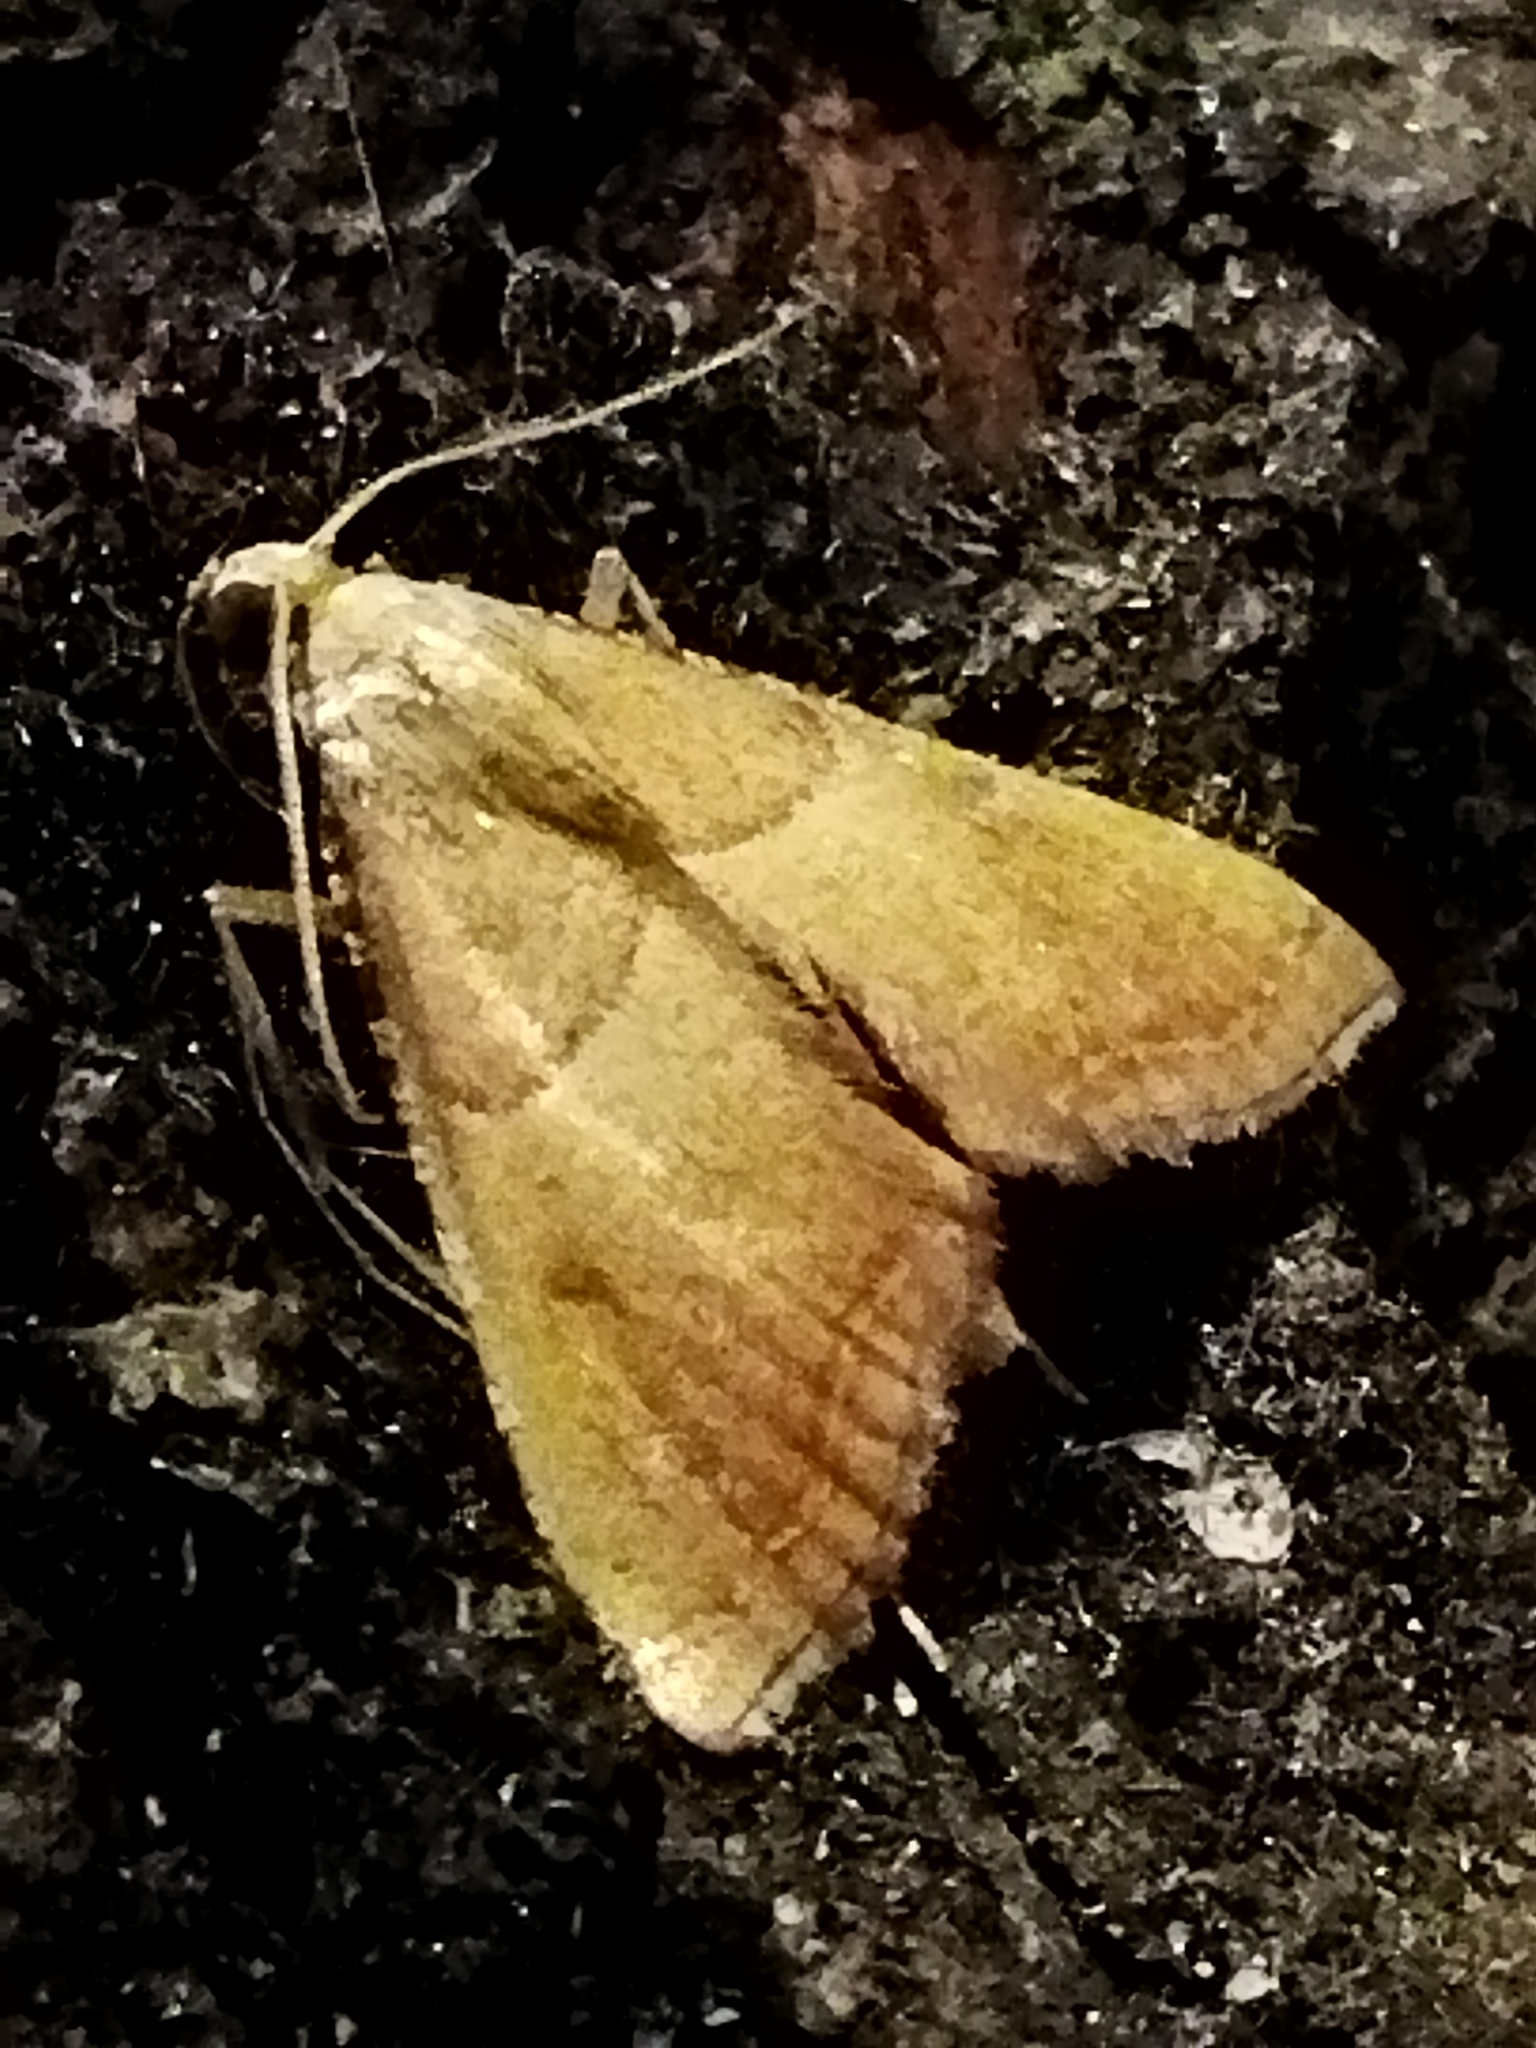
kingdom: Animalia
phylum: Arthropoda
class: Insecta
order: Lepidoptera
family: Pyralidae
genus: Endotricha
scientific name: Endotricha flammealis
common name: Rosy tabby
